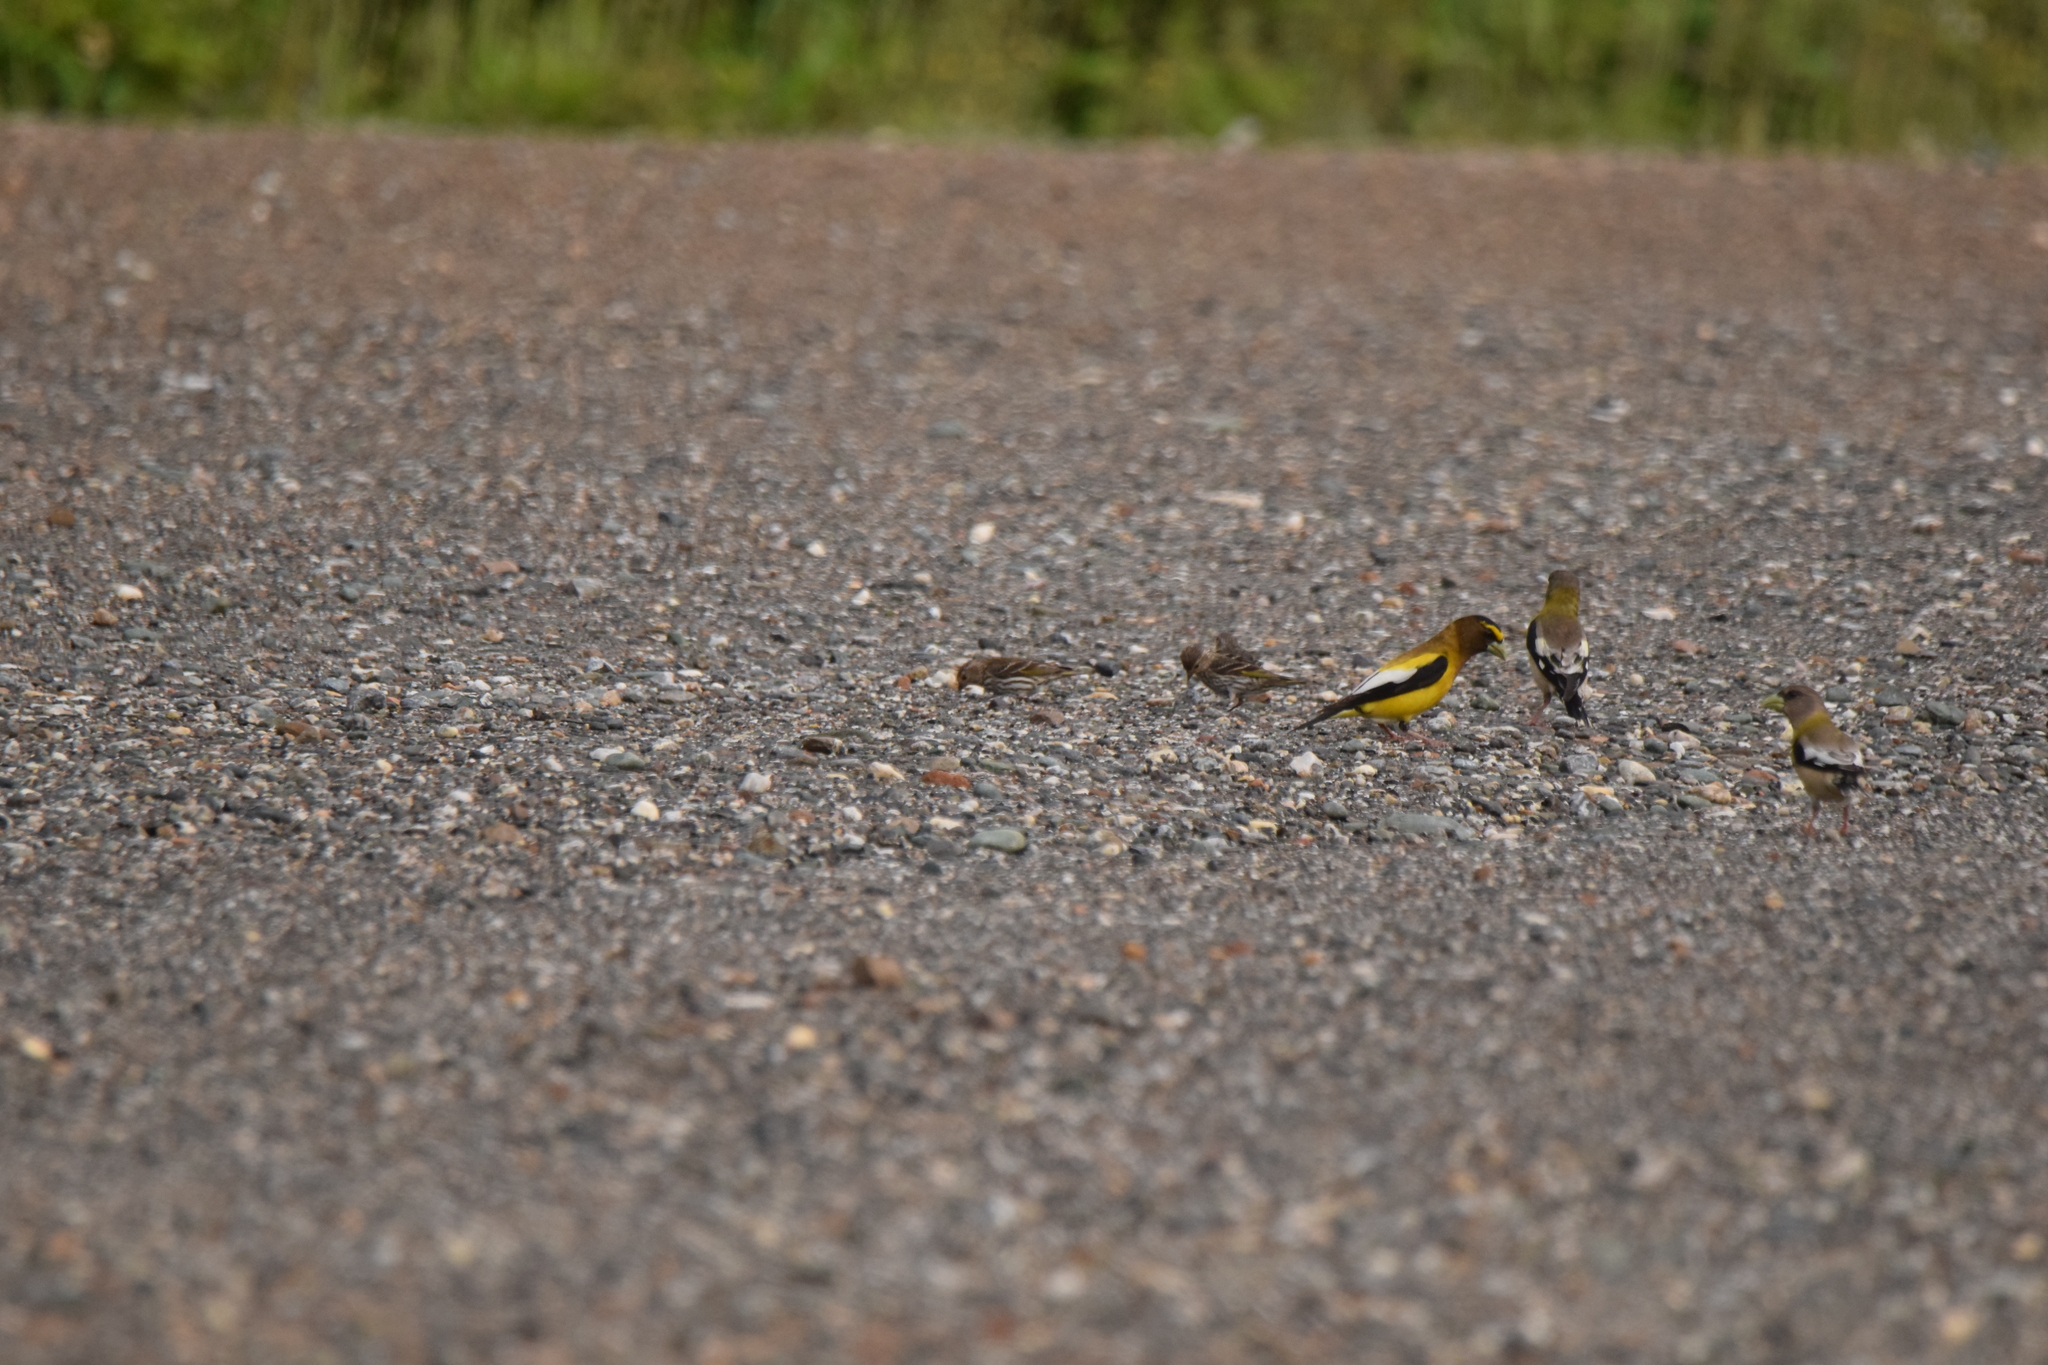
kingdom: Animalia
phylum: Chordata
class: Aves
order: Passeriformes
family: Fringillidae
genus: Spinus
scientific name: Spinus pinus
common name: Pine siskin
